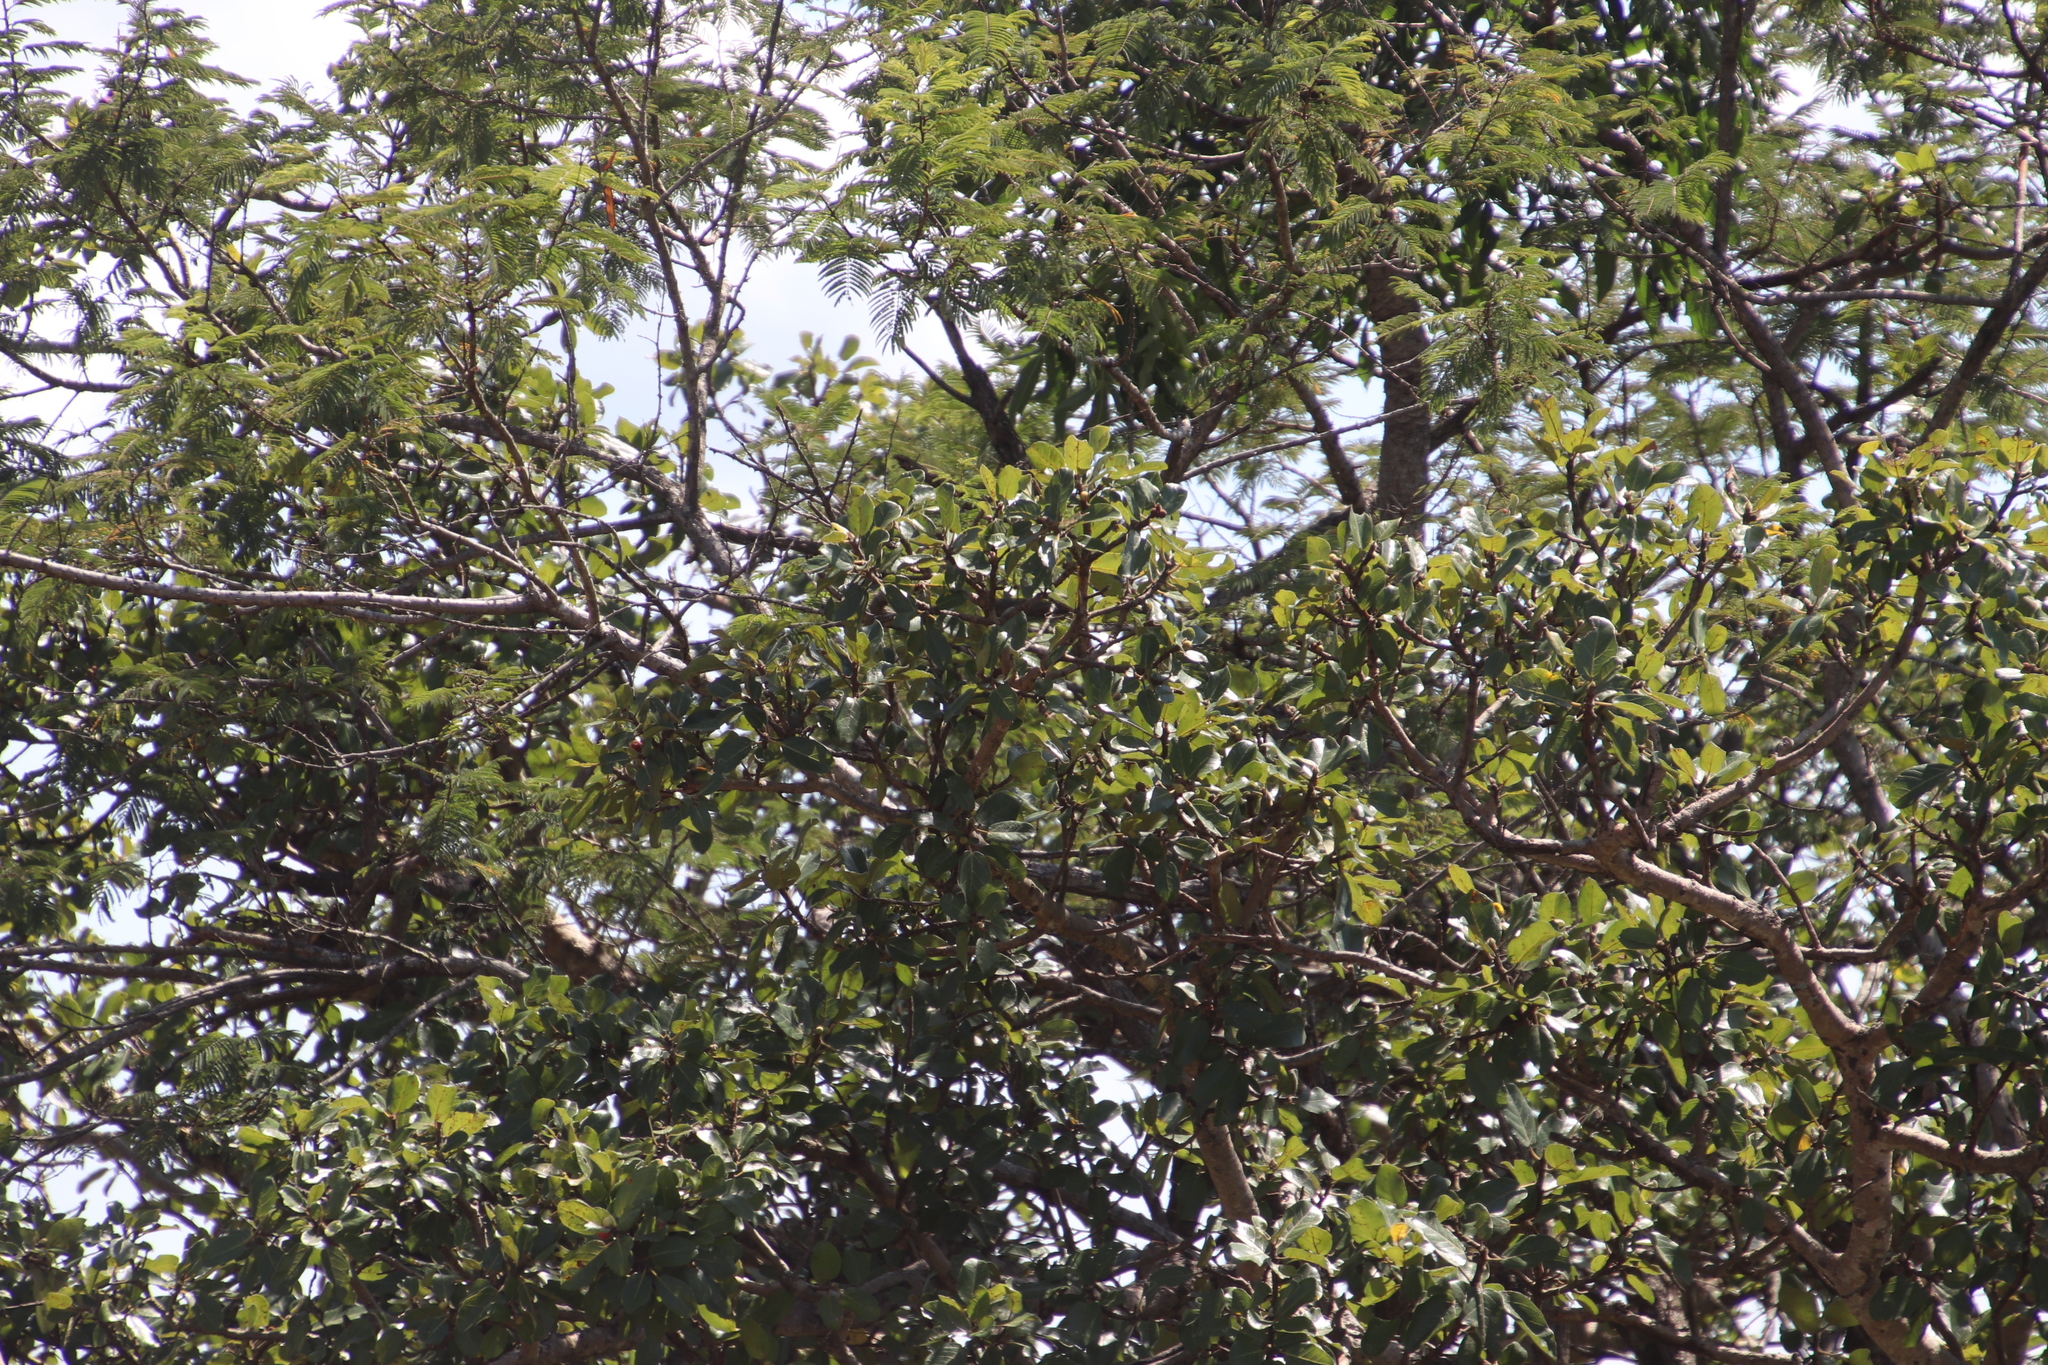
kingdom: Plantae
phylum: Tracheophyta
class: Magnoliopsida
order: Rosales
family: Moraceae
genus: Ficus
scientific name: Ficus glumosa
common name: Hairy rock fig
